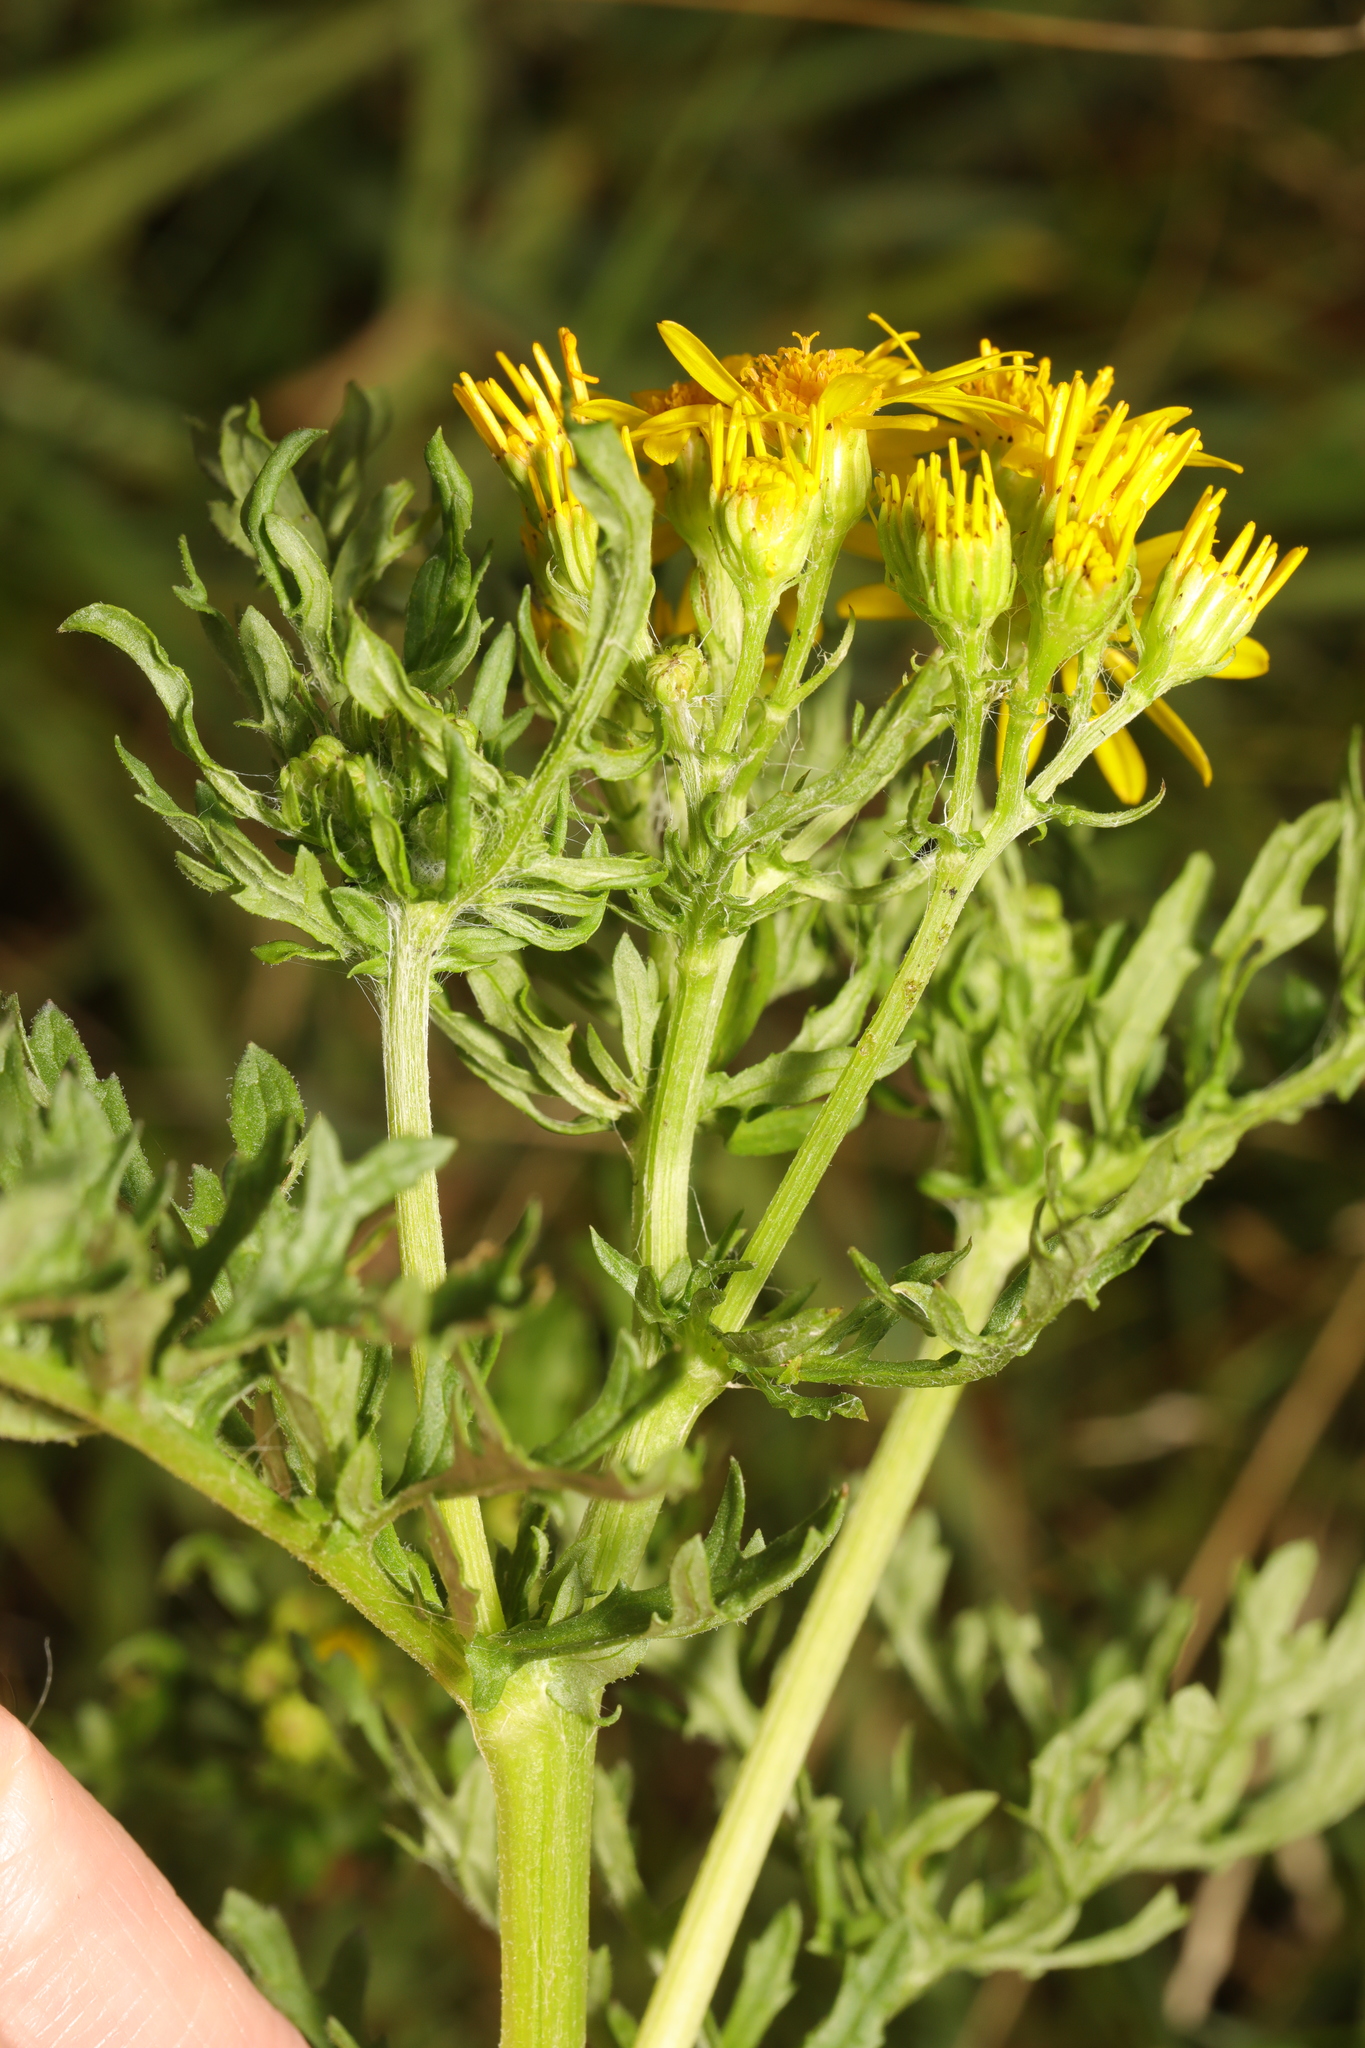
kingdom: Plantae
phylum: Tracheophyta
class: Magnoliopsida
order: Asterales
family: Asteraceae
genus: Jacobaea
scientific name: Jacobaea vulgaris
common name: Stinking willie
